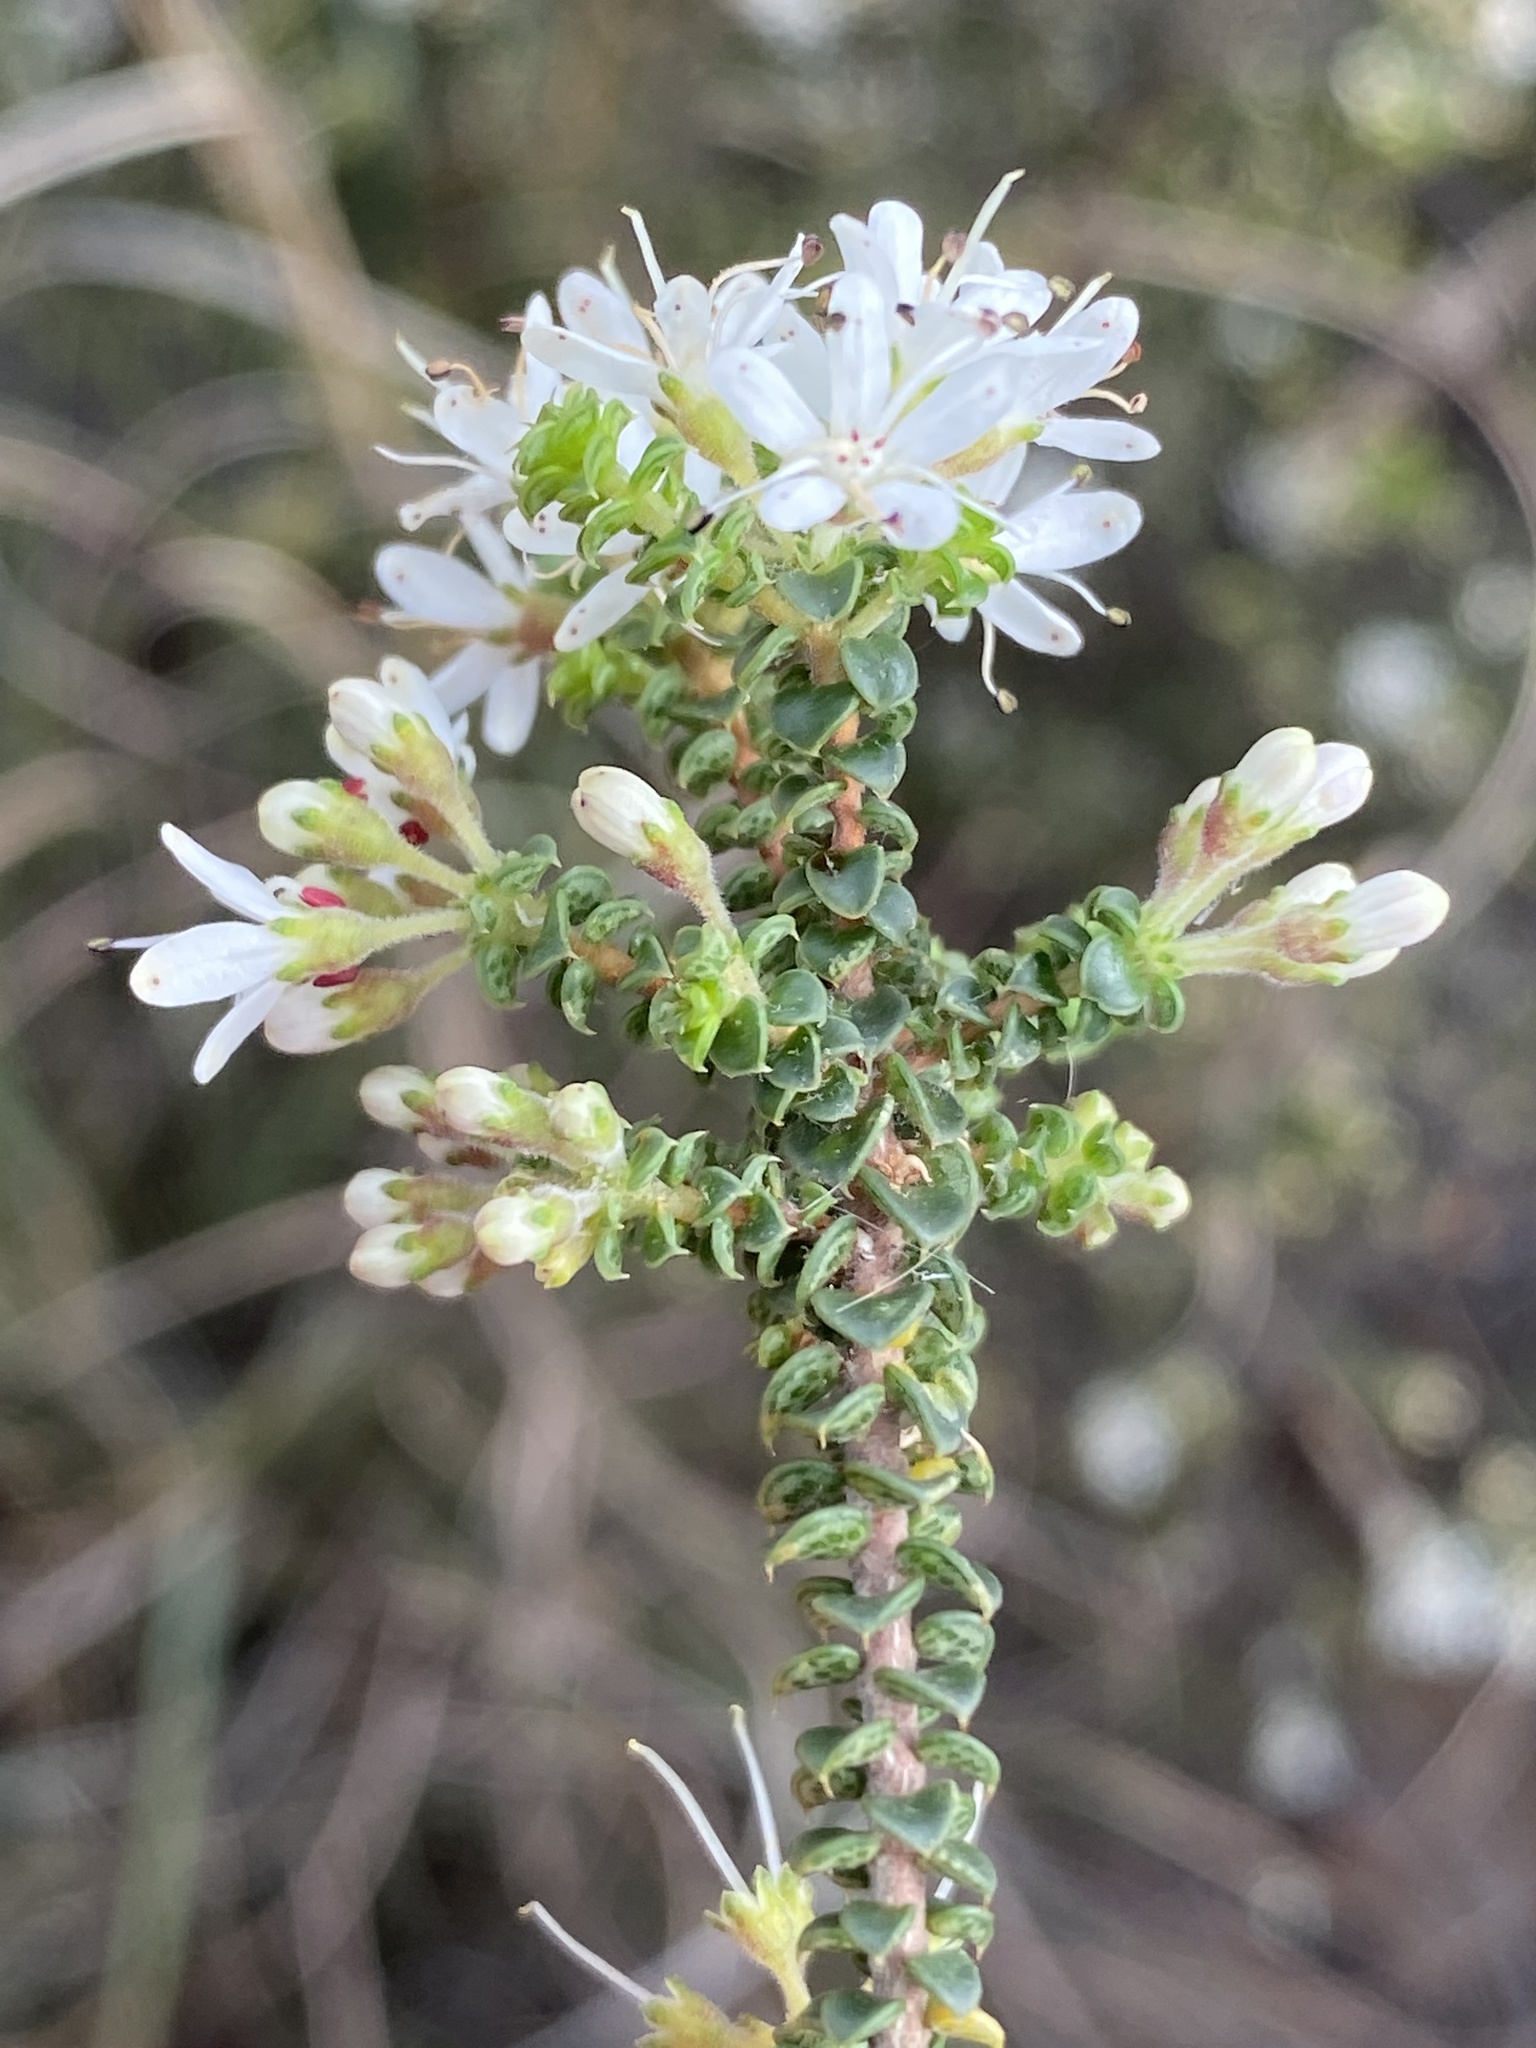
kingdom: Plantae
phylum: Tracheophyta
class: Magnoliopsida
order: Sapindales
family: Rutaceae
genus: Agathosma
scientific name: Agathosma recurvifolia
